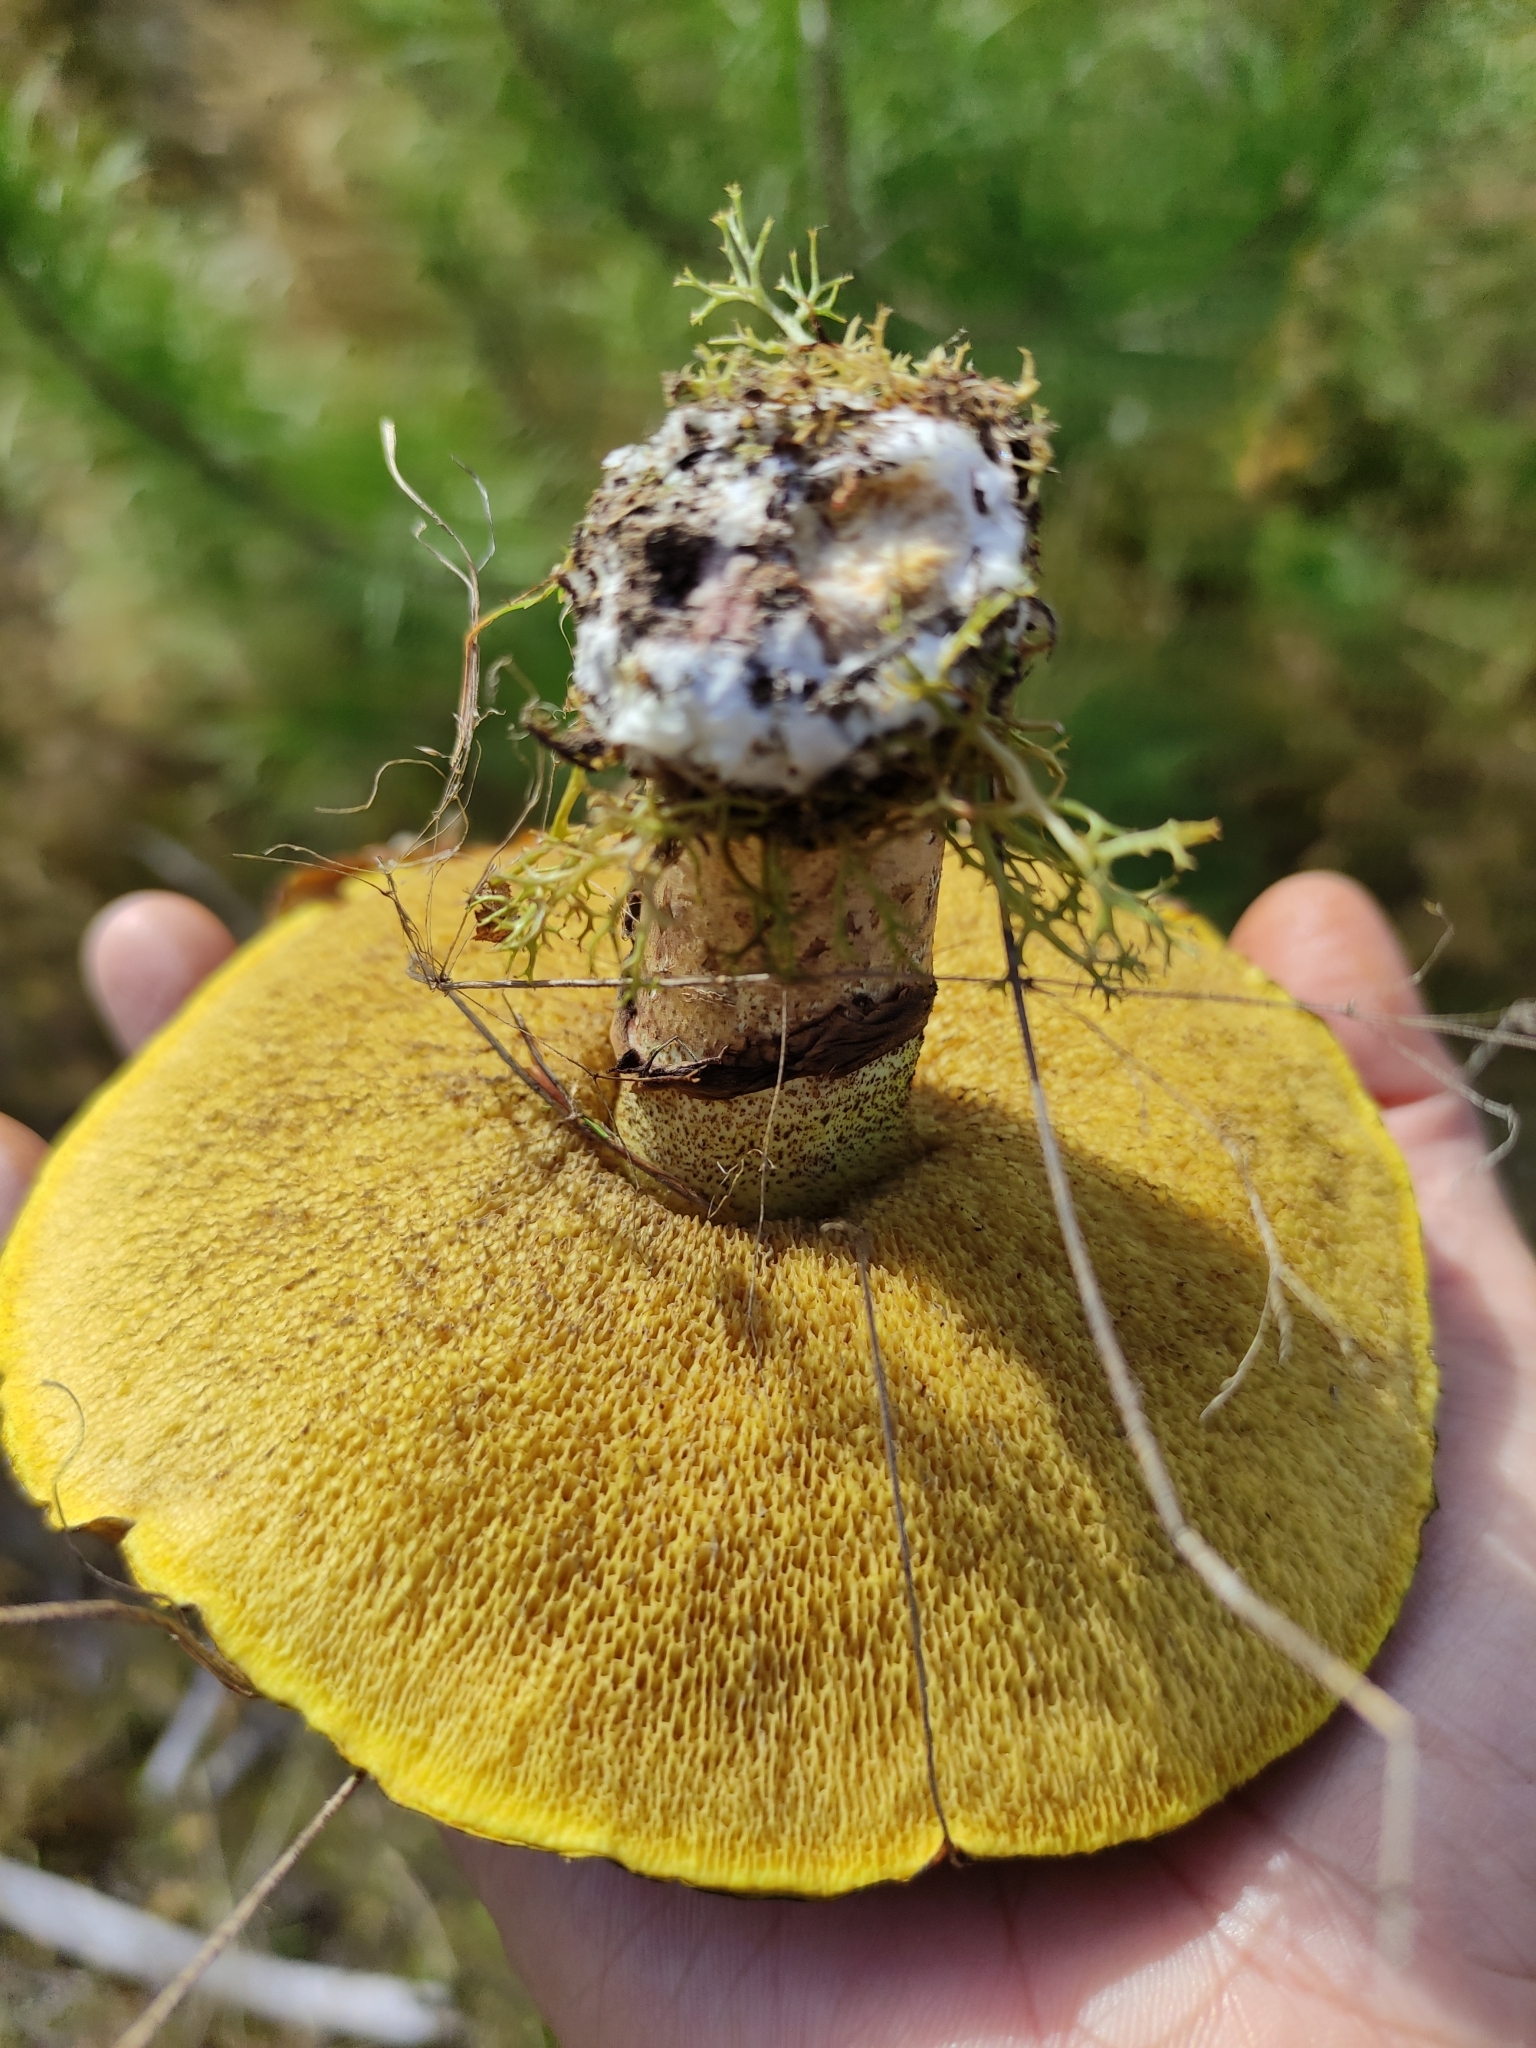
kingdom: Fungi
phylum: Basidiomycota
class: Agaricomycetes
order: Boletales
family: Suillaceae
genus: Suillus
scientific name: Suillus luteus
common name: Slippery jack
